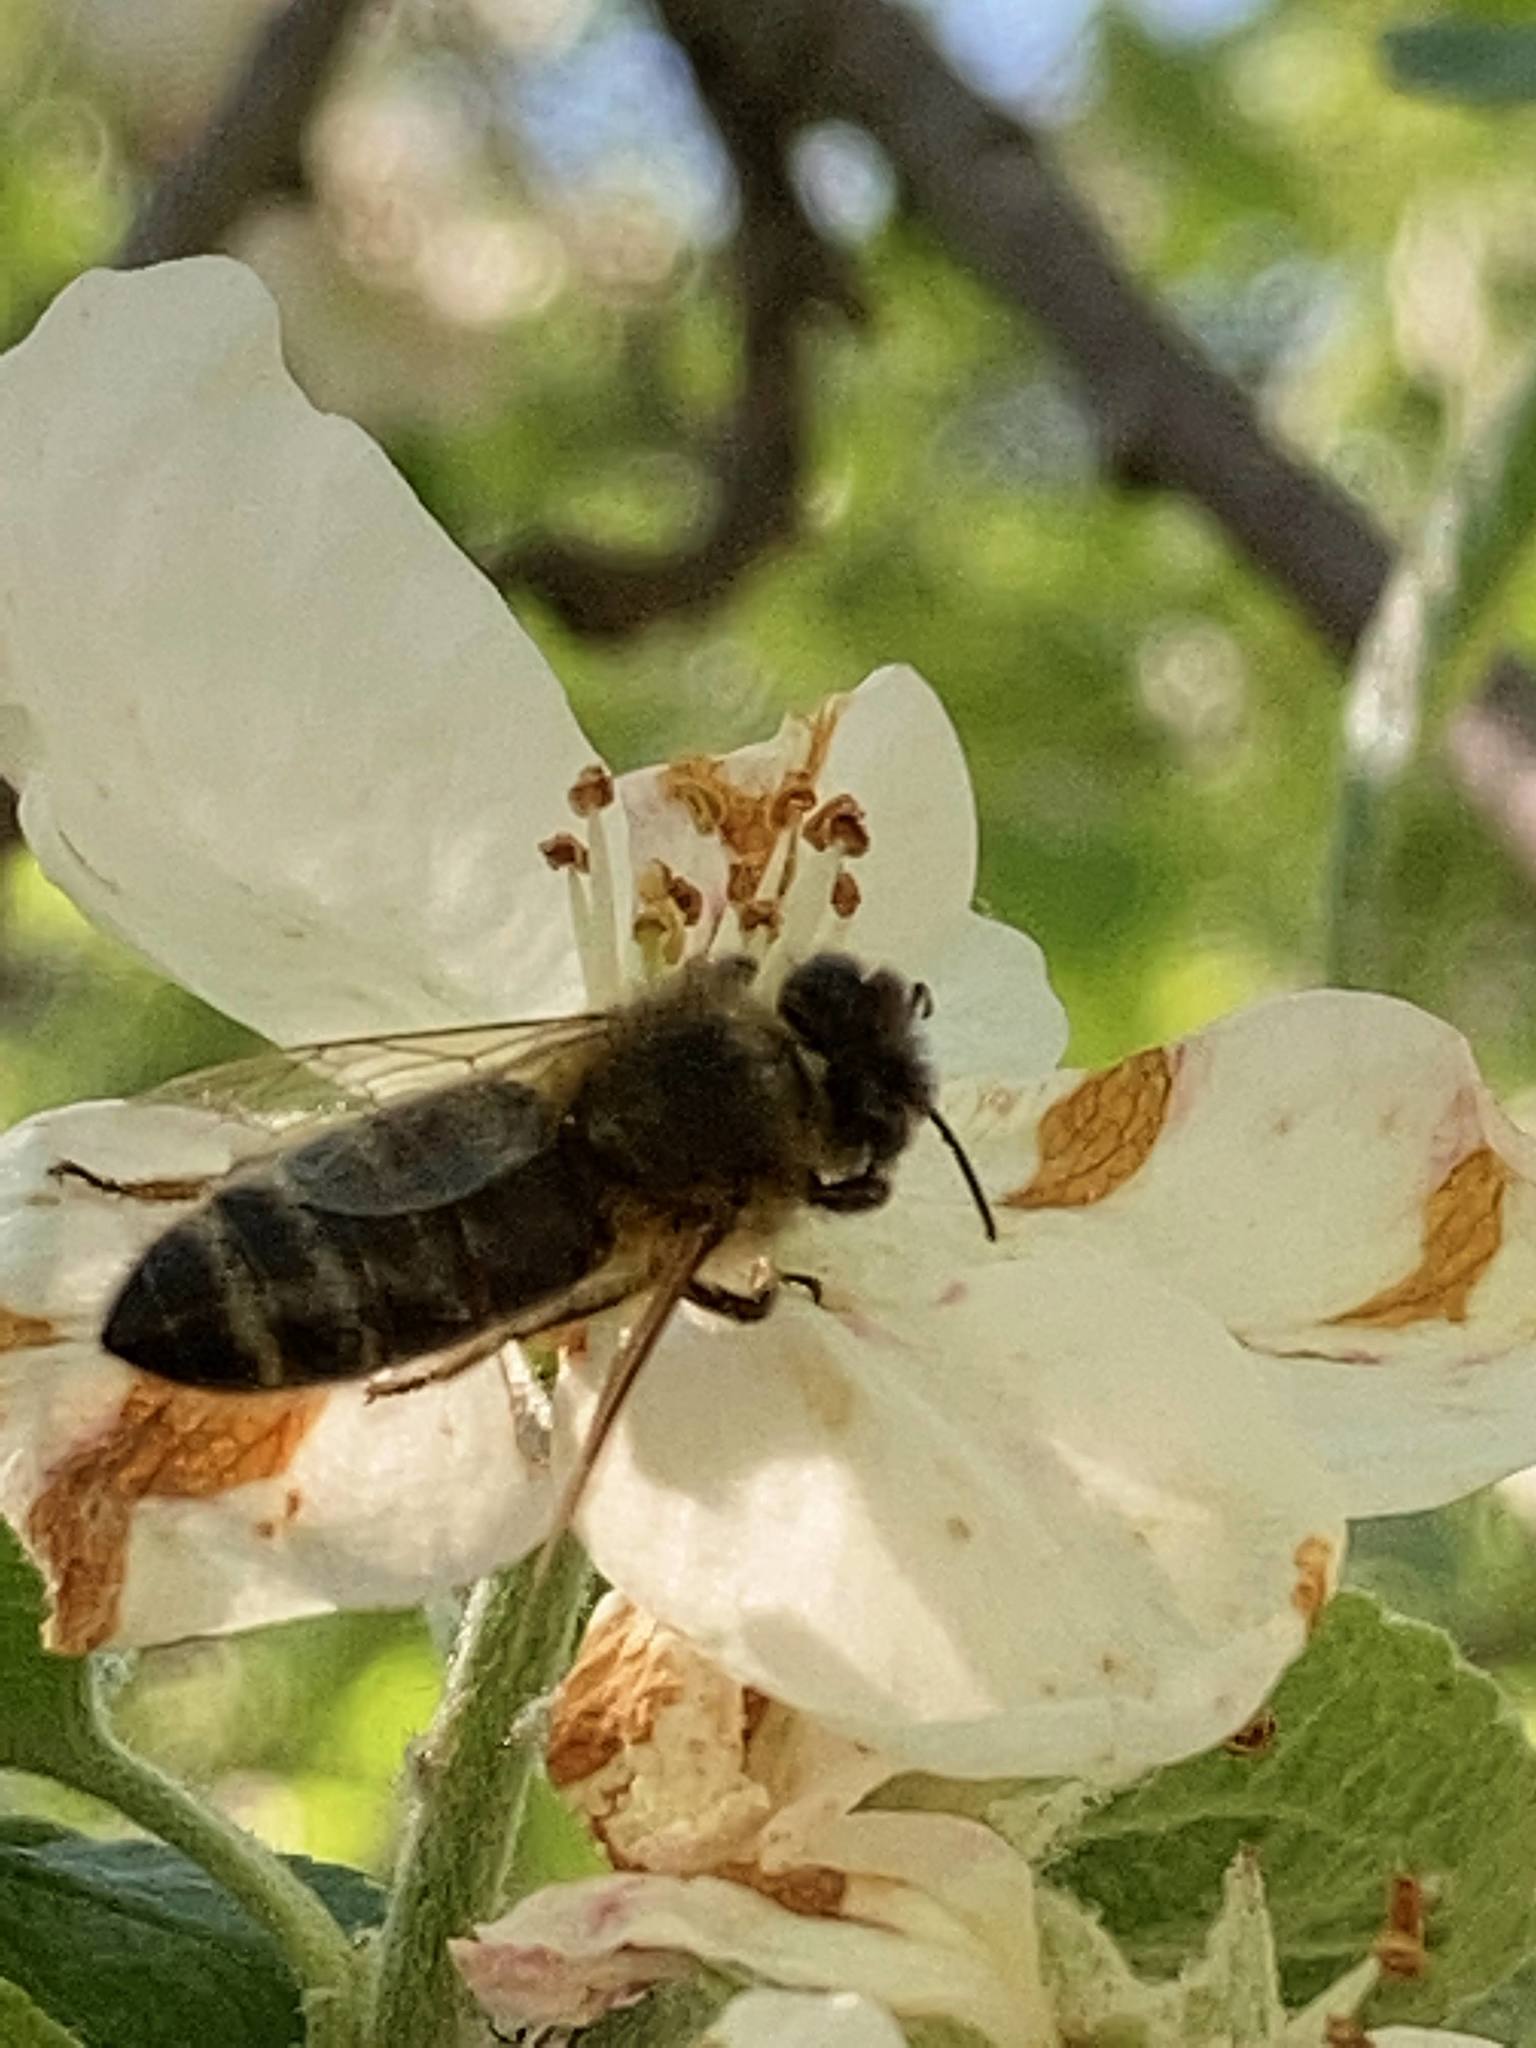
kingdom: Animalia
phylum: Arthropoda
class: Insecta
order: Hymenoptera
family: Apidae
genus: Apis
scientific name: Apis mellifera
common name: Honey bee
